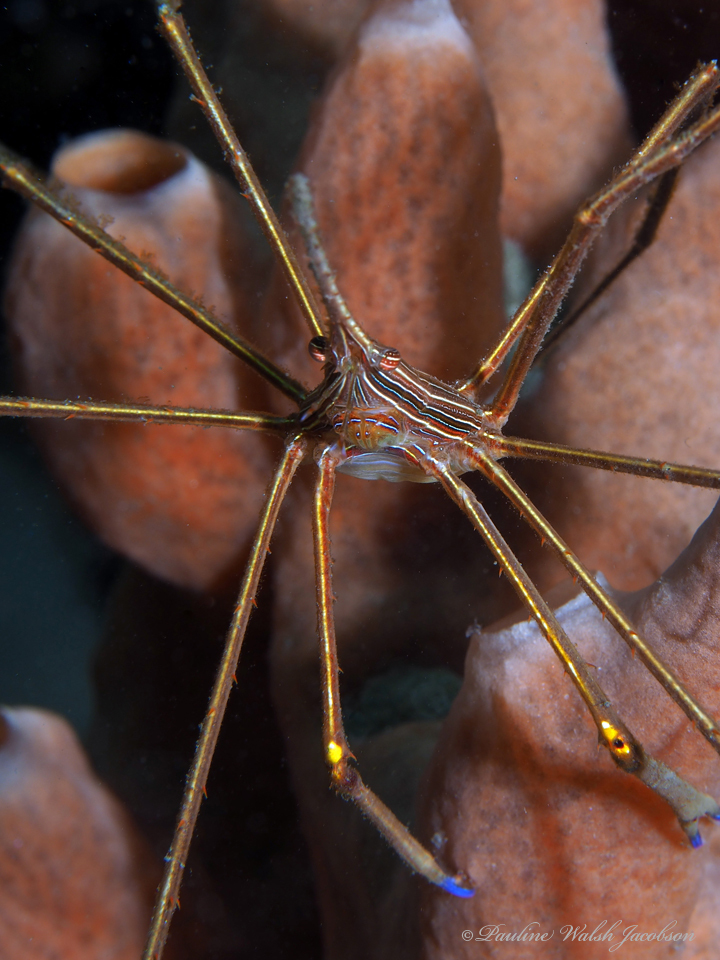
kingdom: Animalia
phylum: Arthropoda
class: Malacostraca
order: Decapoda
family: Inachoididae
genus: Stenorhynchus
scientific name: Stenorhynchus seticornis
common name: Arrow crab
